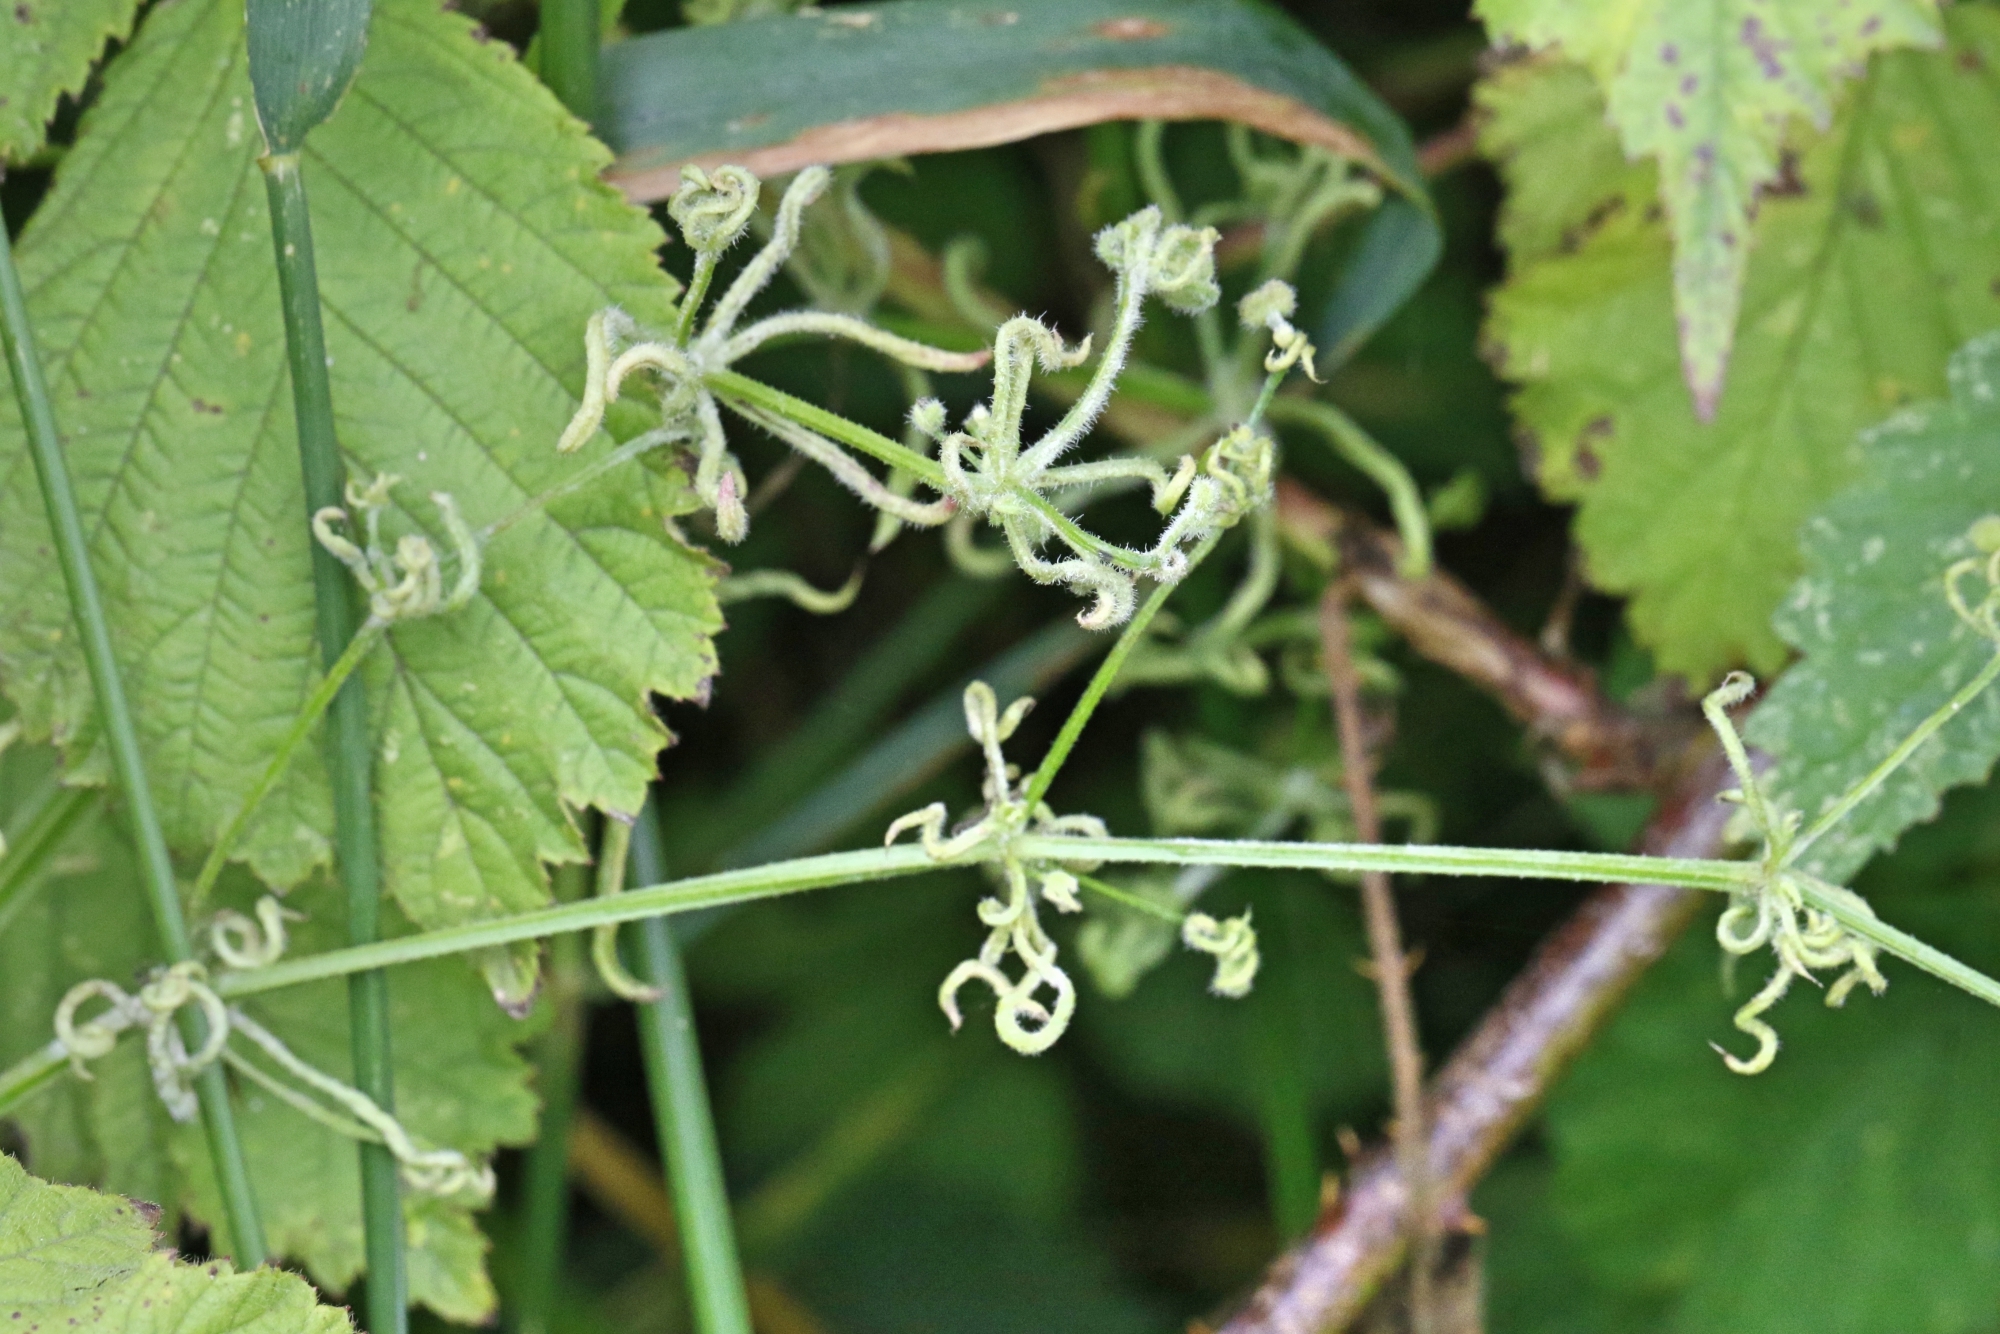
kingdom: Animalia
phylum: Arthropoda
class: Arachnida
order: Trombidiformes
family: Eriophyidae
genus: Cecidophyes
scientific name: Cecidophyes rouhollahi
